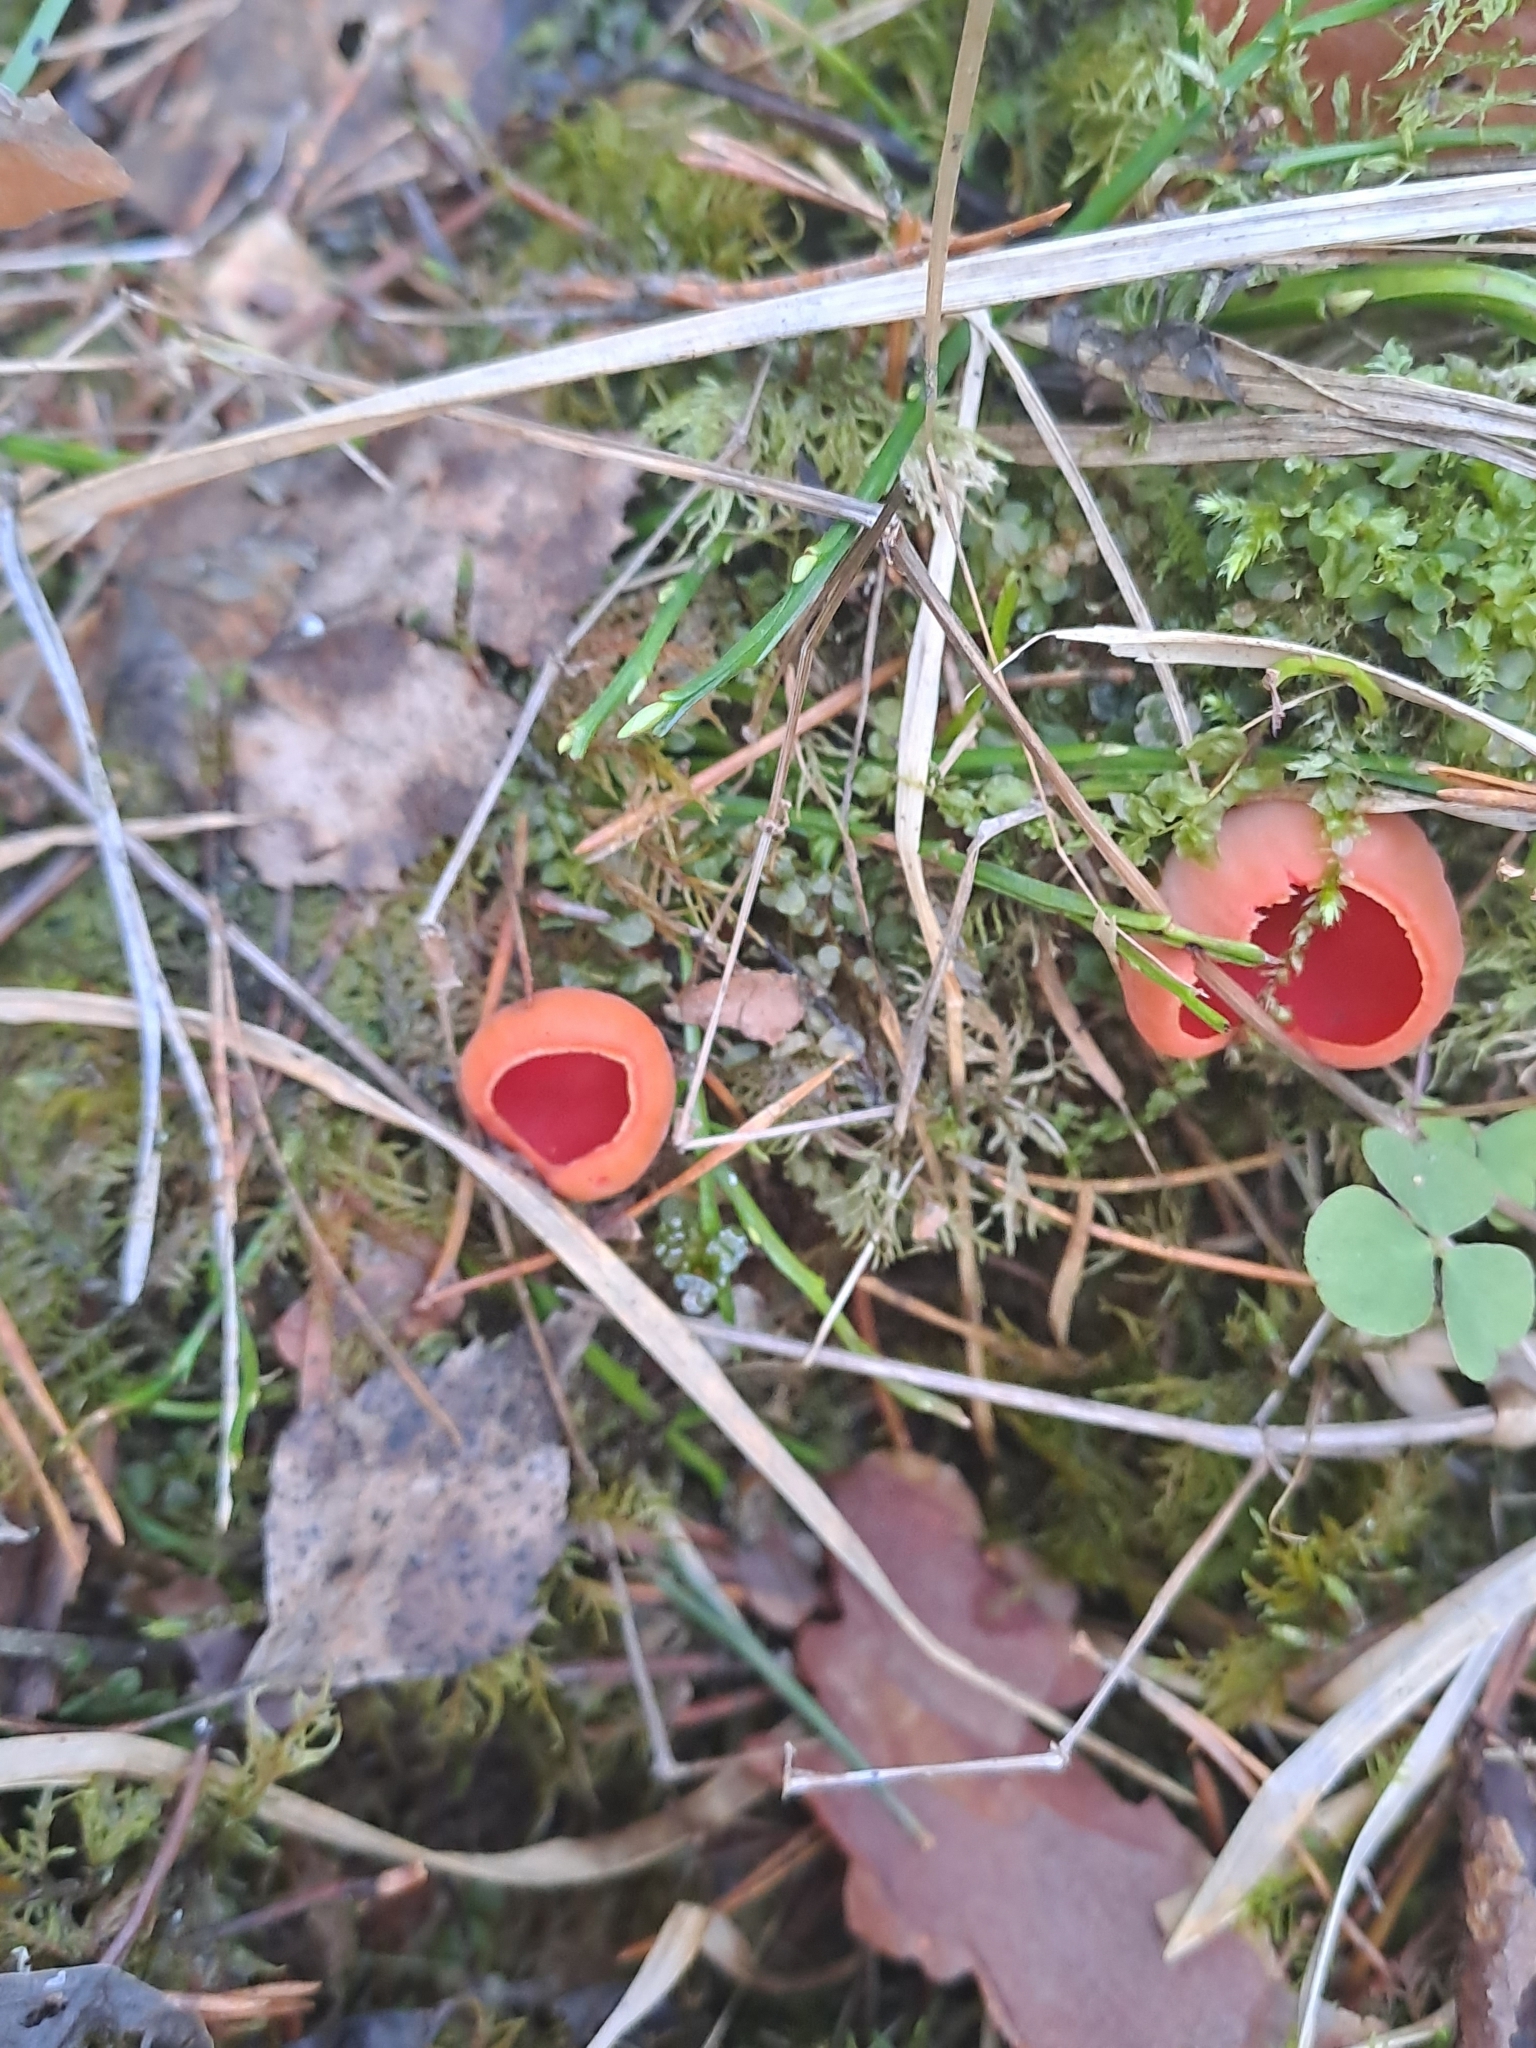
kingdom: Fungi
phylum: Ascomycota
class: Pezizomycetes
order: Pezizales
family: Sarcoscyphaceae
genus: Sarcoscypha
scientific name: Sarcoscypha
